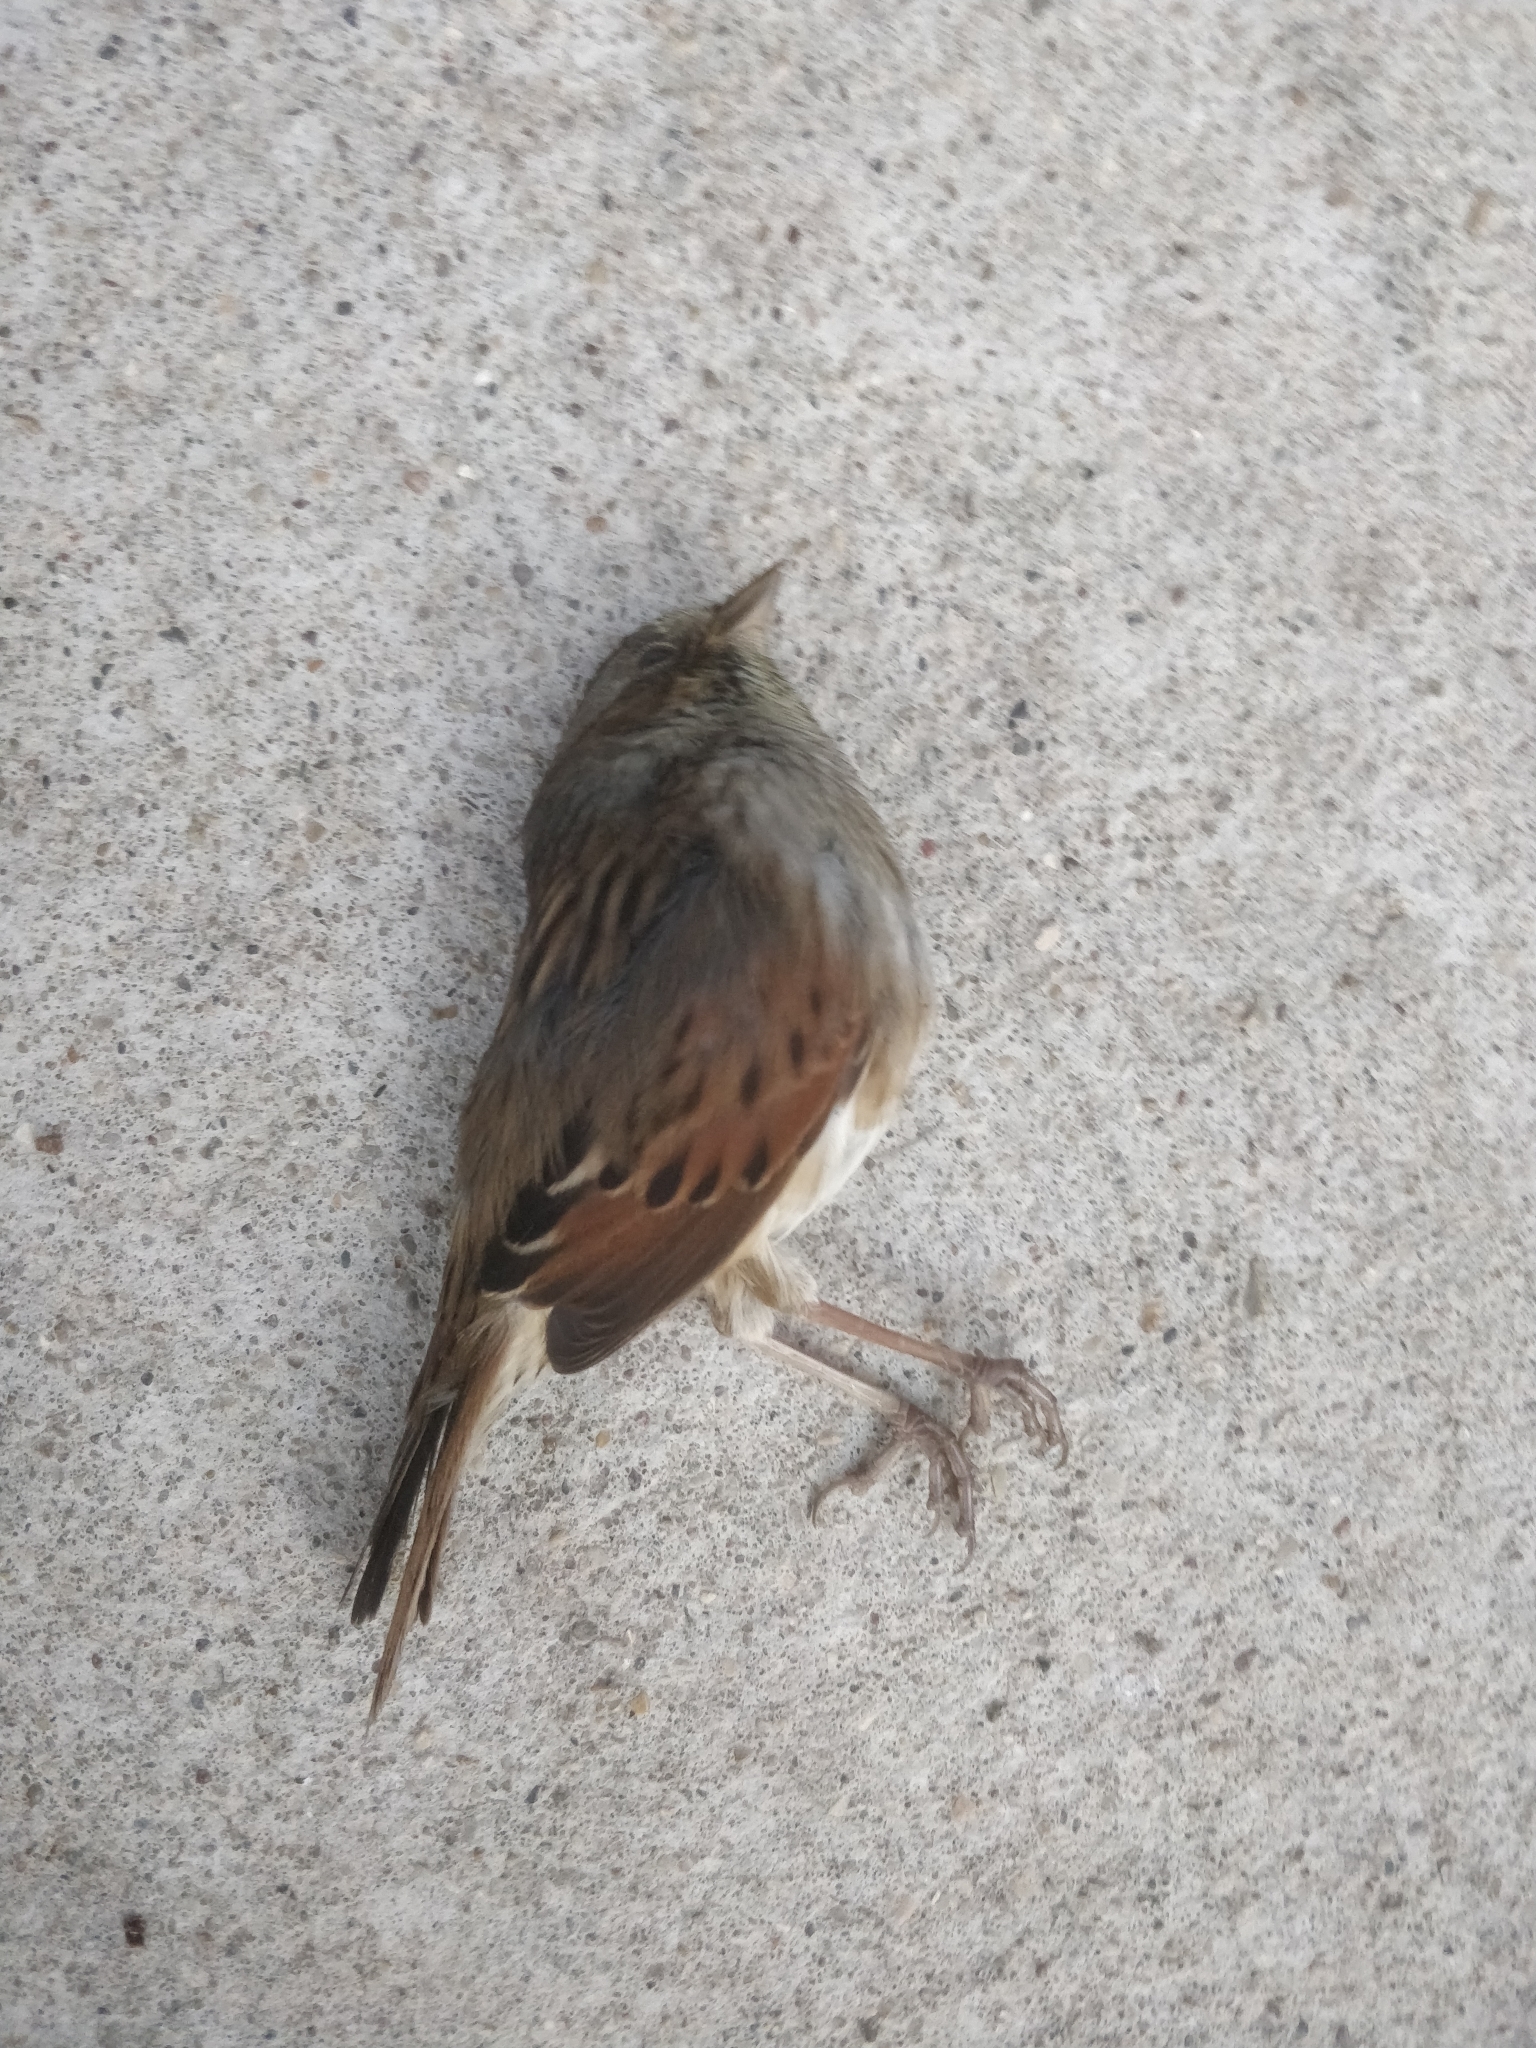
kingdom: Animalia
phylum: Chordata
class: Aves
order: Passeriformes
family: Passerellidae
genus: Melospiza
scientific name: Melospiza georgiana
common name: Swamp sparrow
